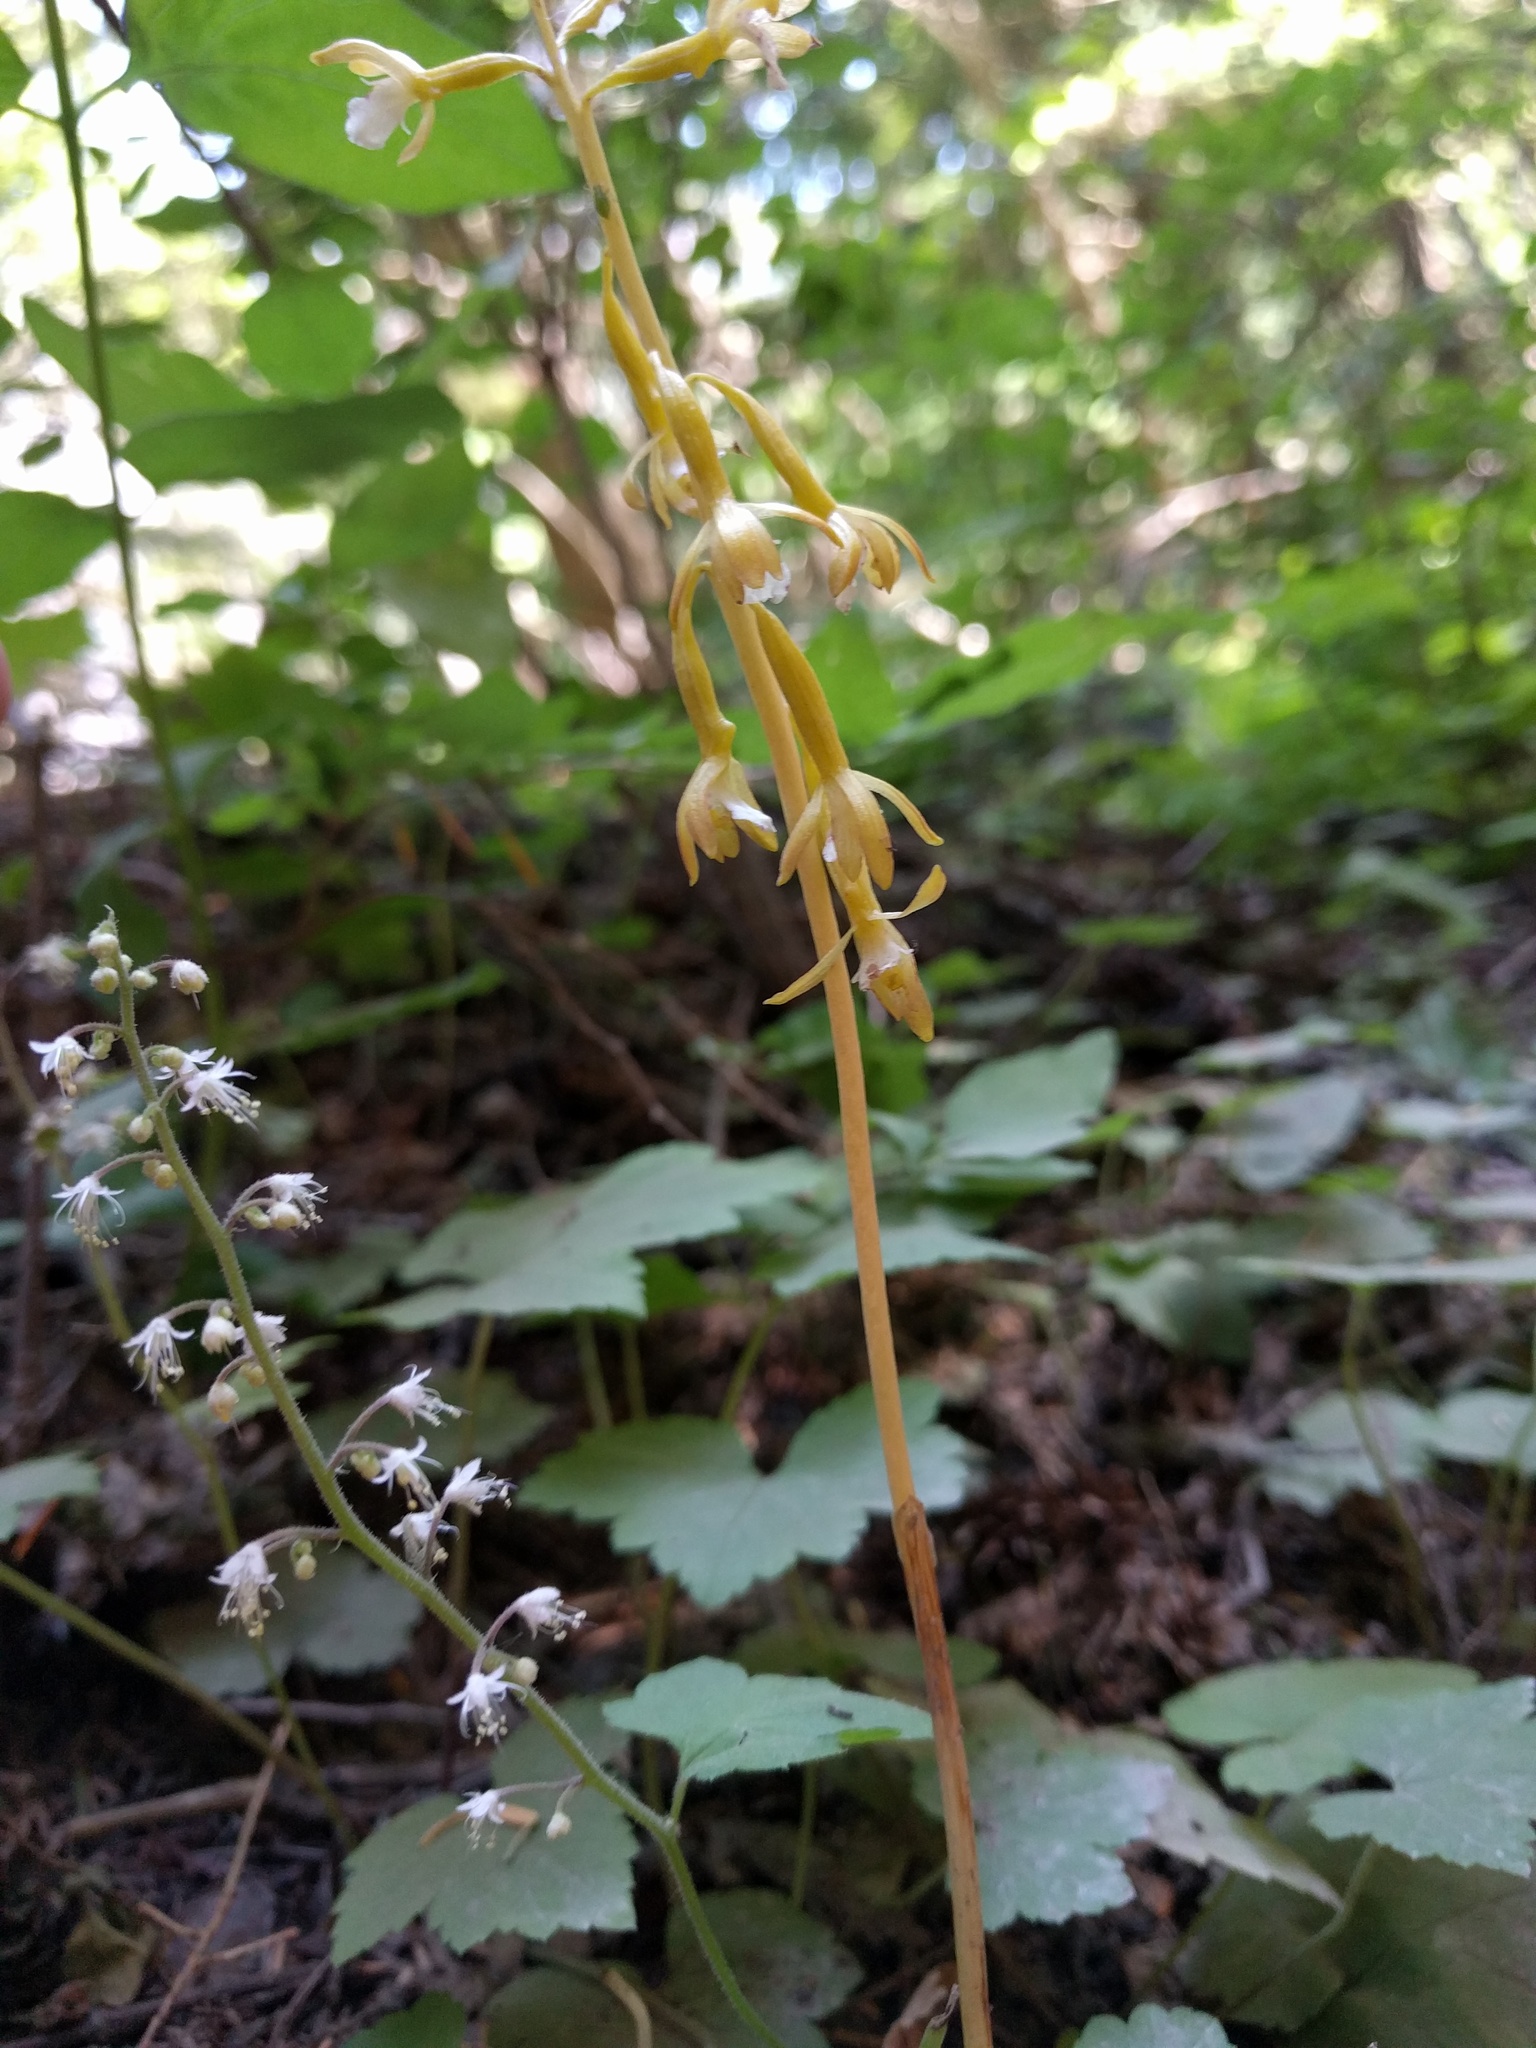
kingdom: Plantae
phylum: Tracheophyta
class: Liliopsida
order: Asparagales
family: Orchidaceae
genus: Corallorhiza
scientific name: Corallorhiza maculata
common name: Spotted coralroot
